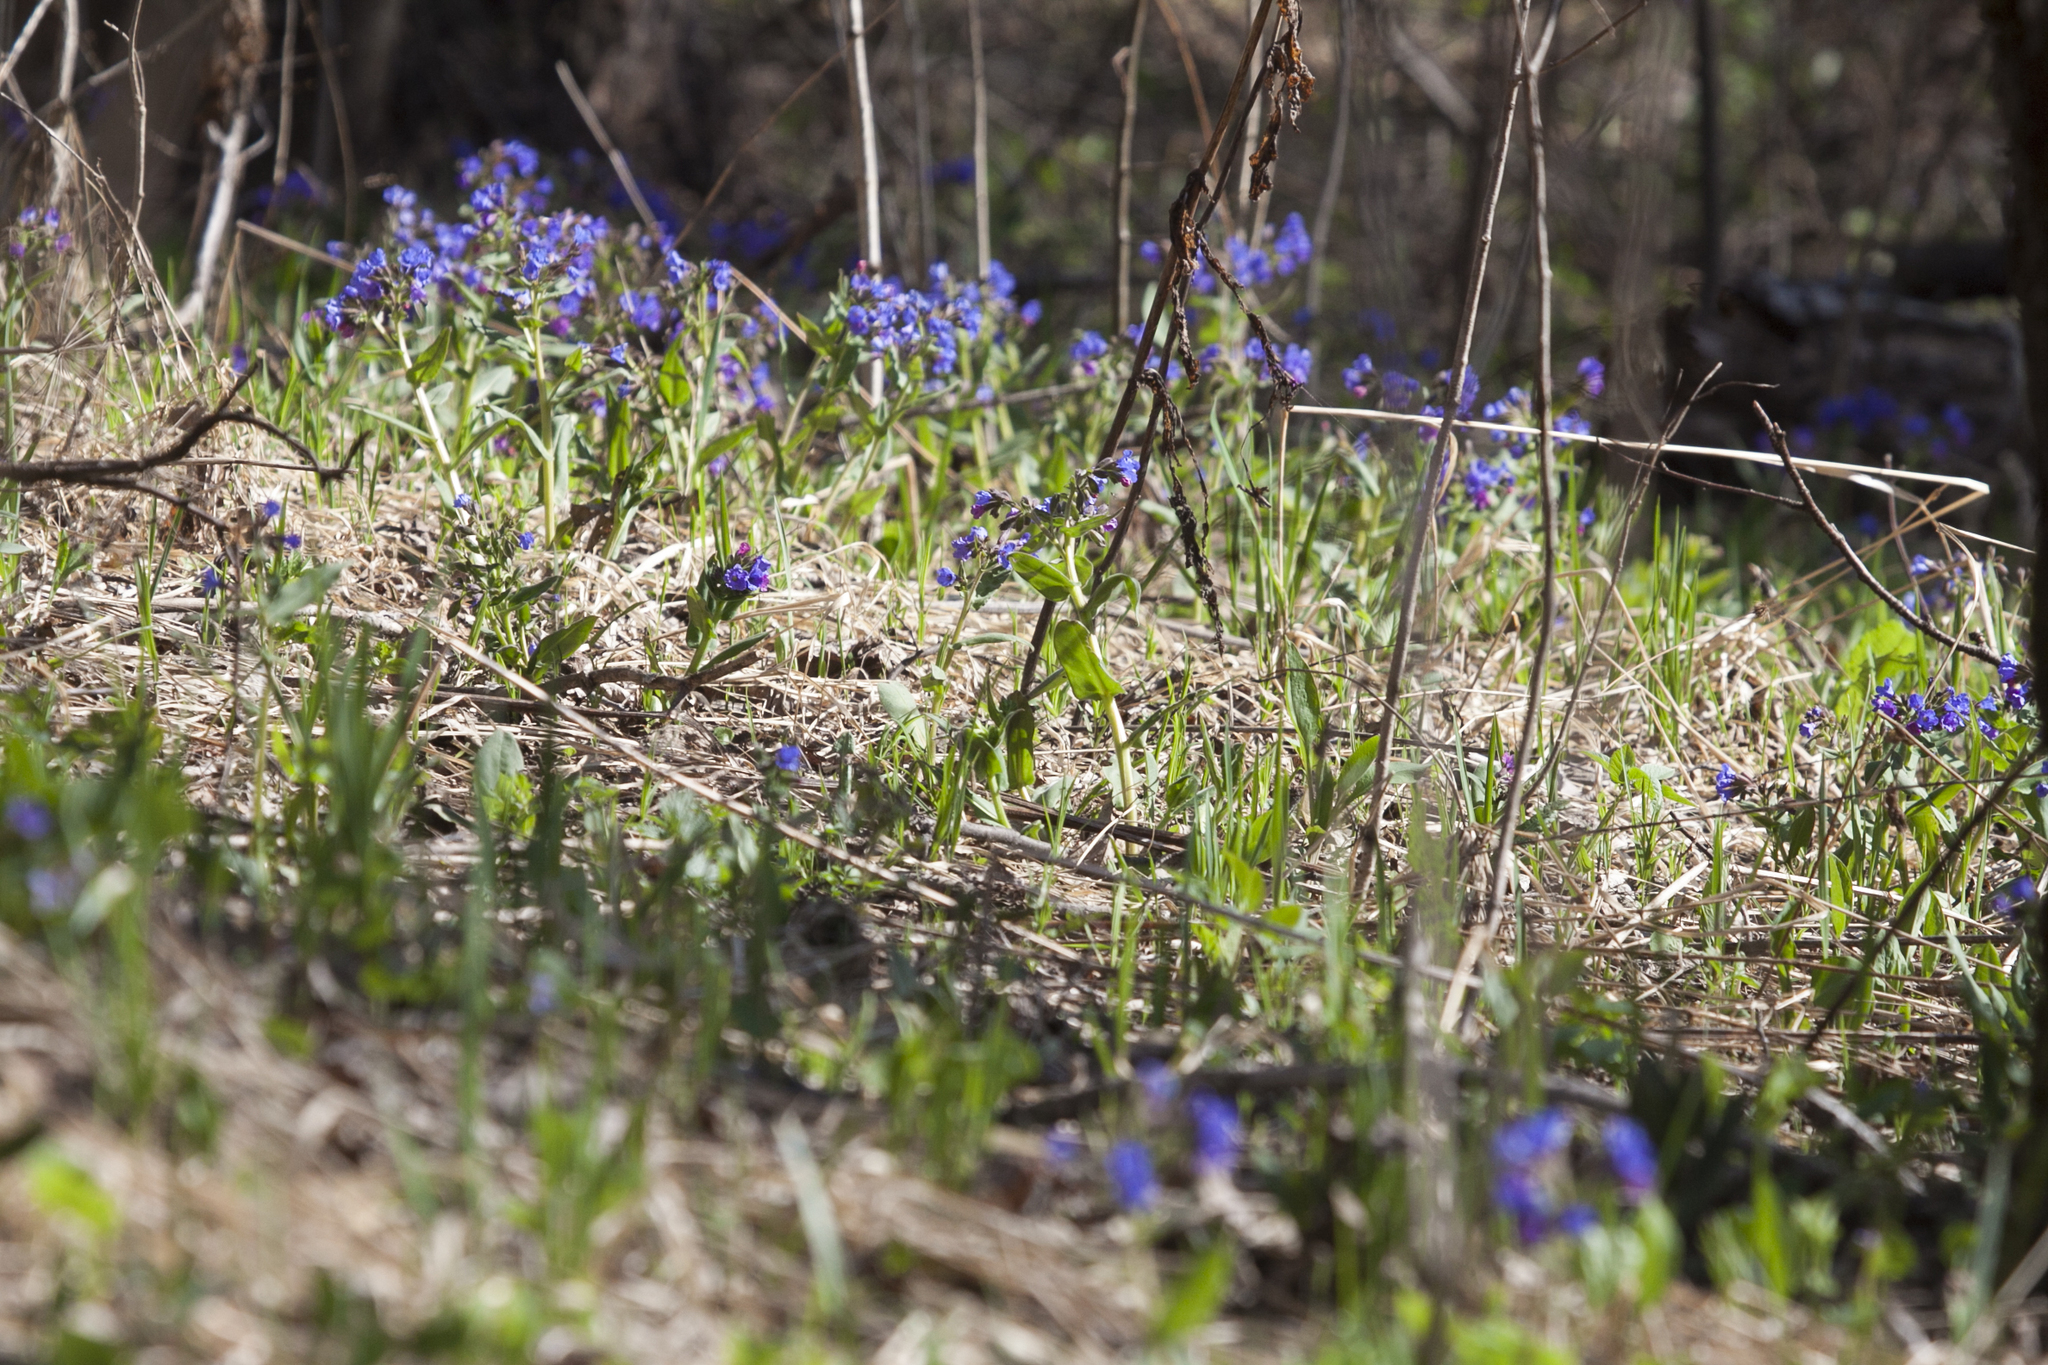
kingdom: Plantae
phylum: Tracheophyta
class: Magnoliopsida
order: Boraginales
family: Boraginaceae
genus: Pulmonaria
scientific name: Pulmonaria mollis
